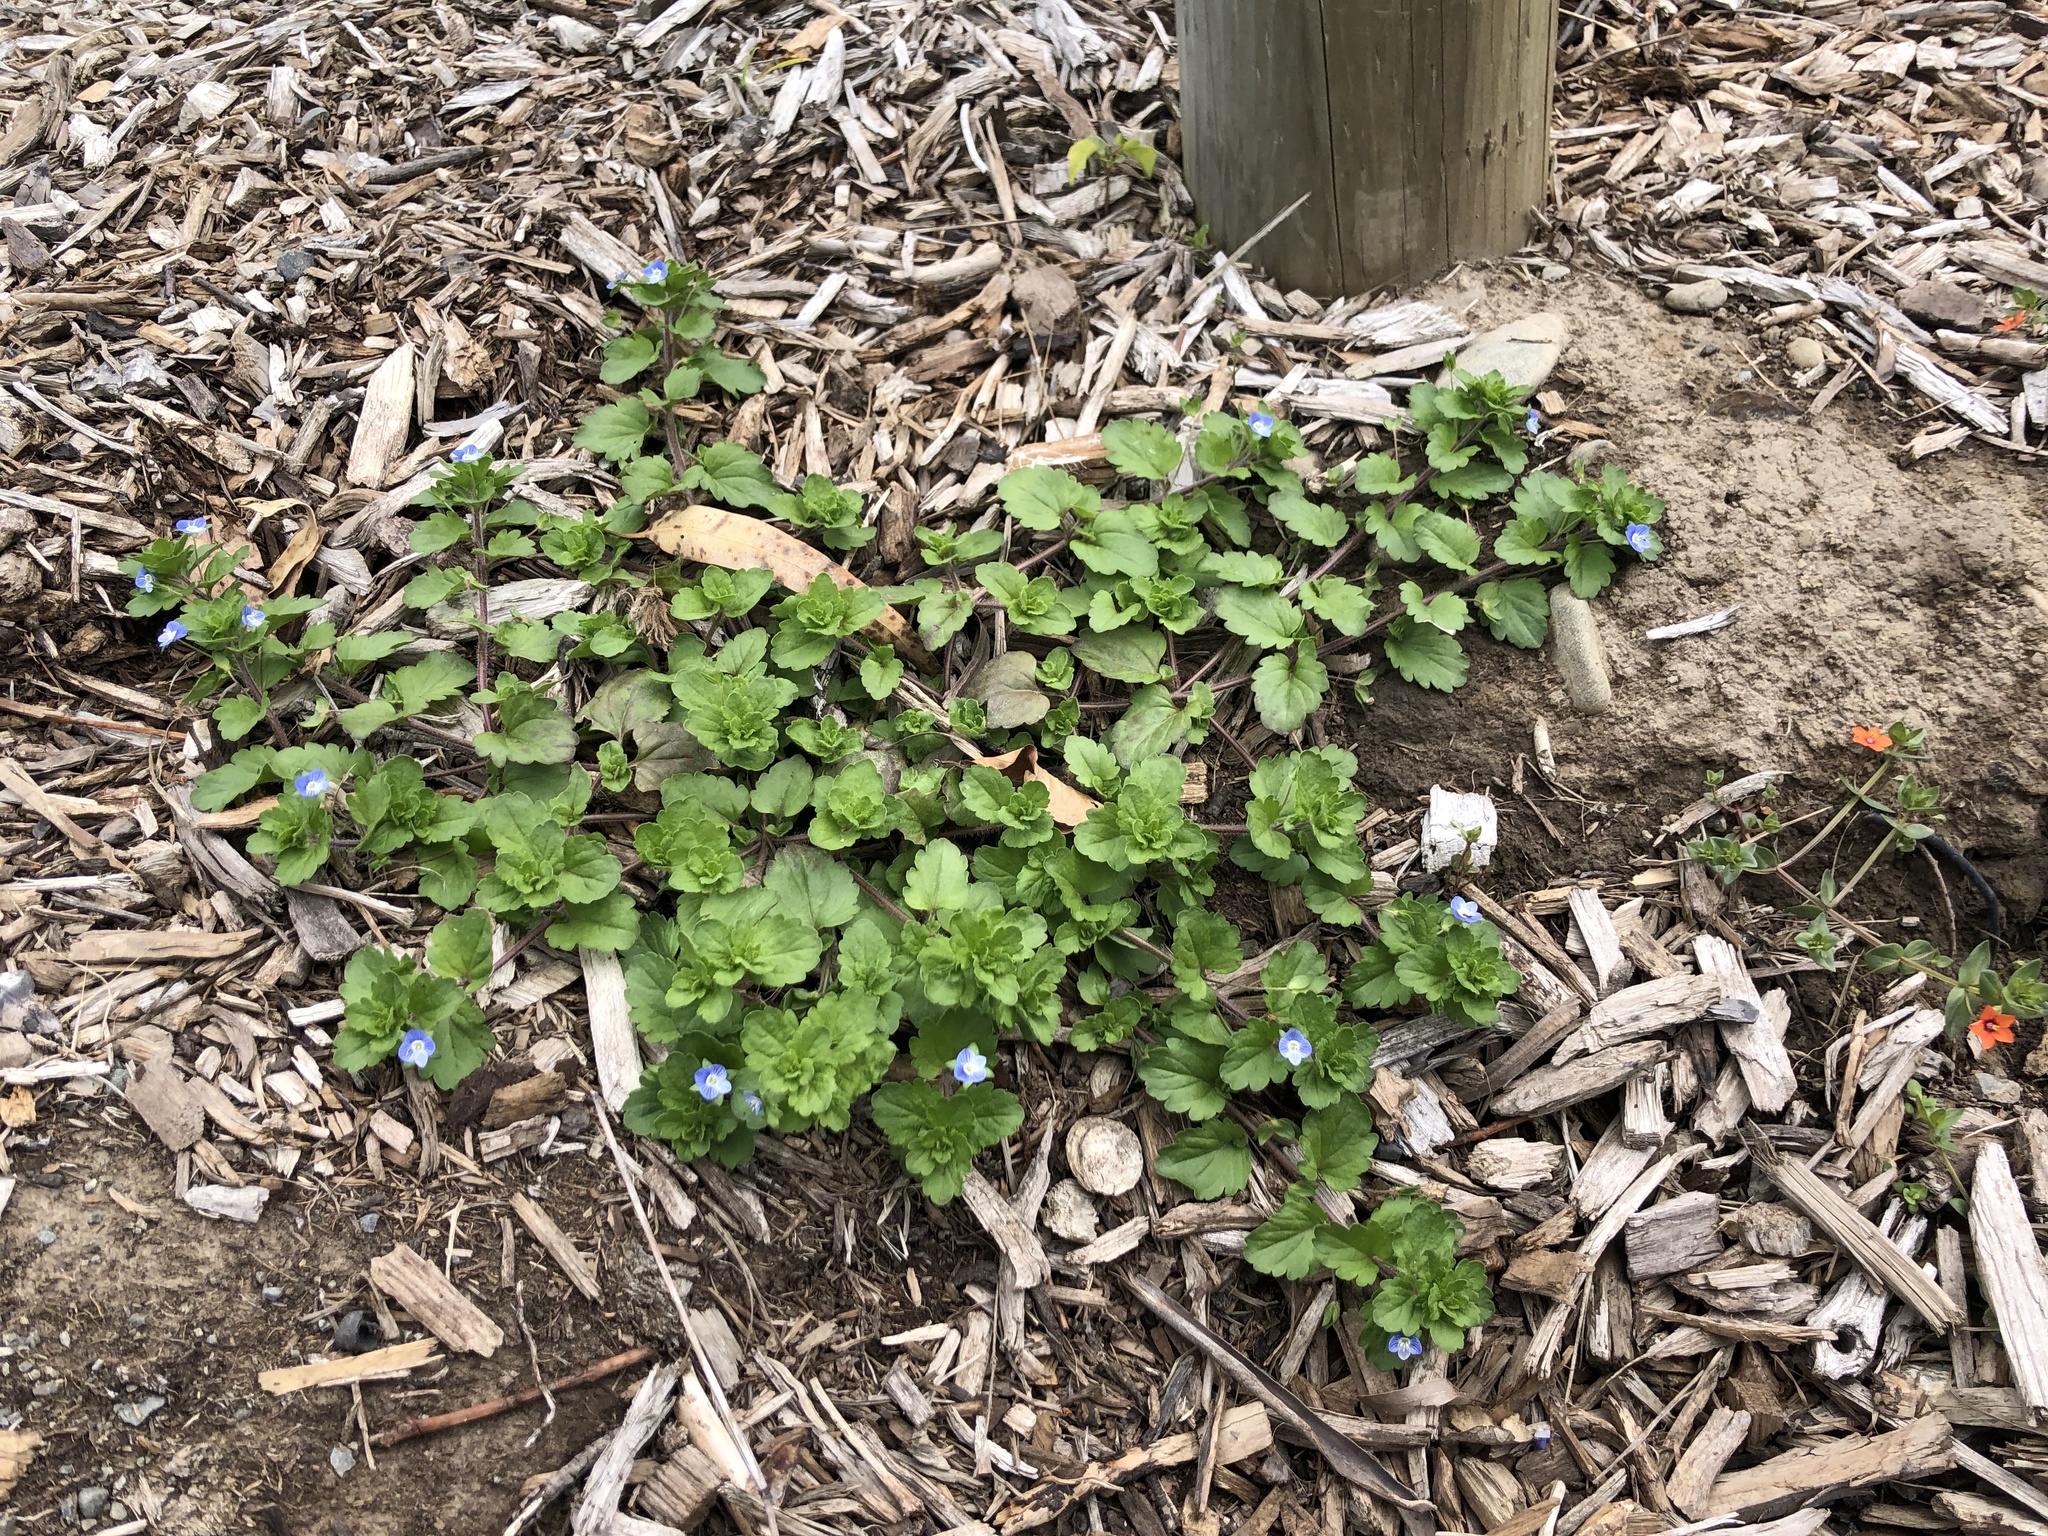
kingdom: Plantae
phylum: Tracheophyta
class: Magnoliopsida
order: Lamiales
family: Plantaginaceae
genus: Veronica
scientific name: Veronica persica
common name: Common field-speedwell
